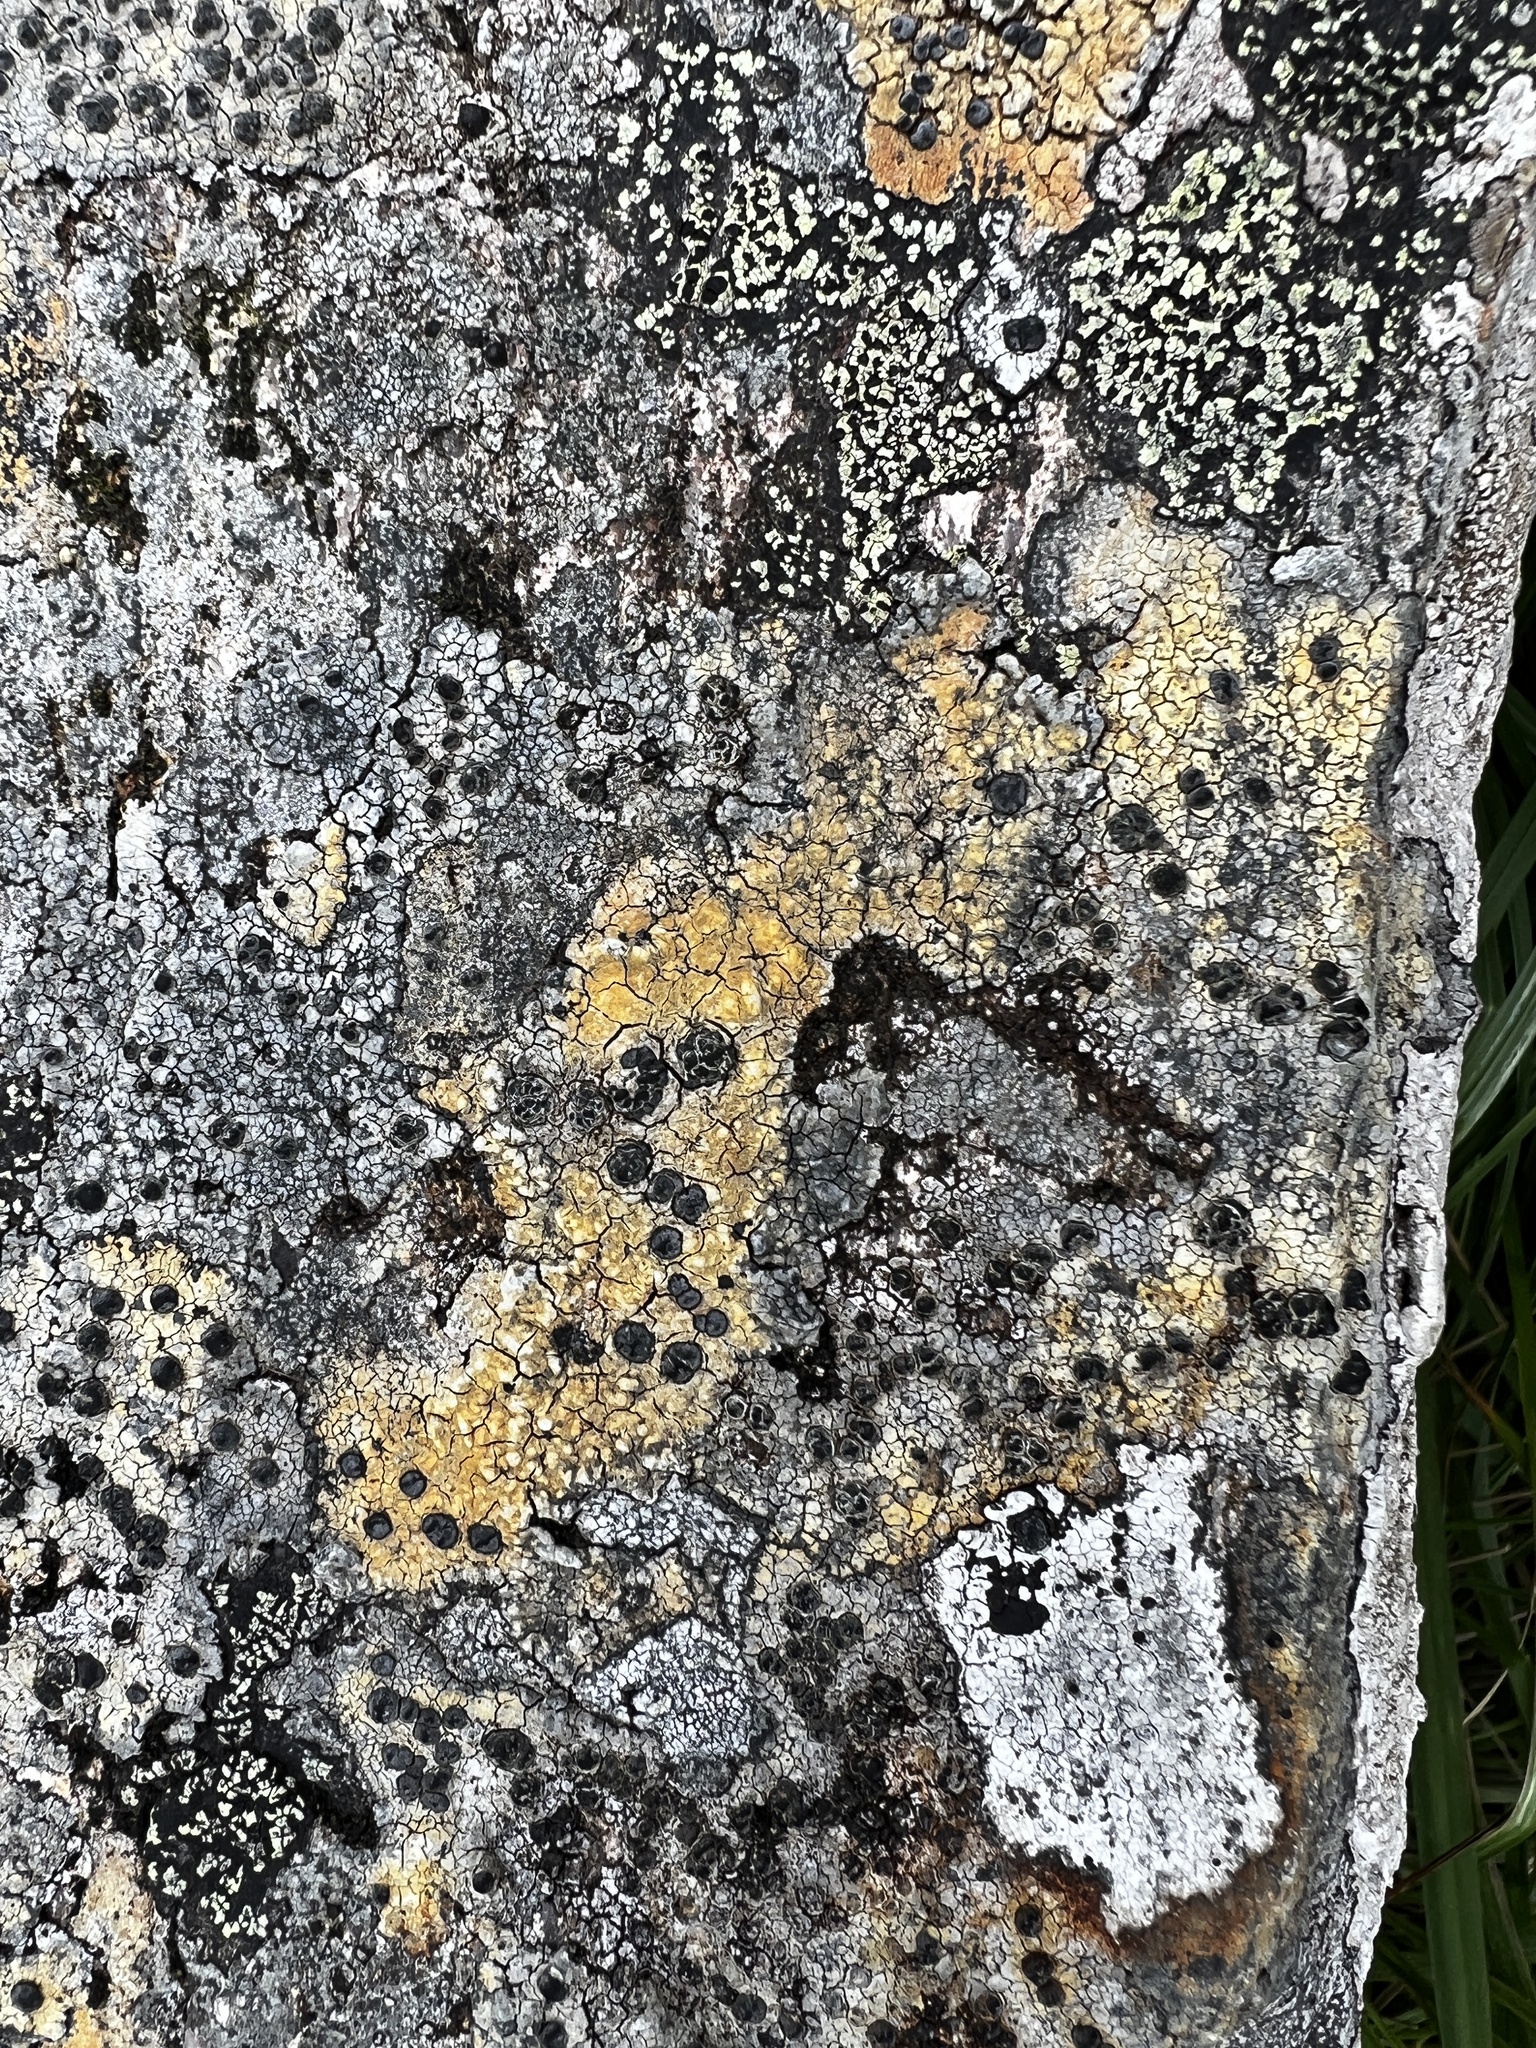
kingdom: Fungi
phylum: Ascomycota
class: Lecanoromycetes
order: Caliciales
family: Caliciaceae
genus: Buellia
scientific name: Buellia erubescens
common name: Common button lichen
